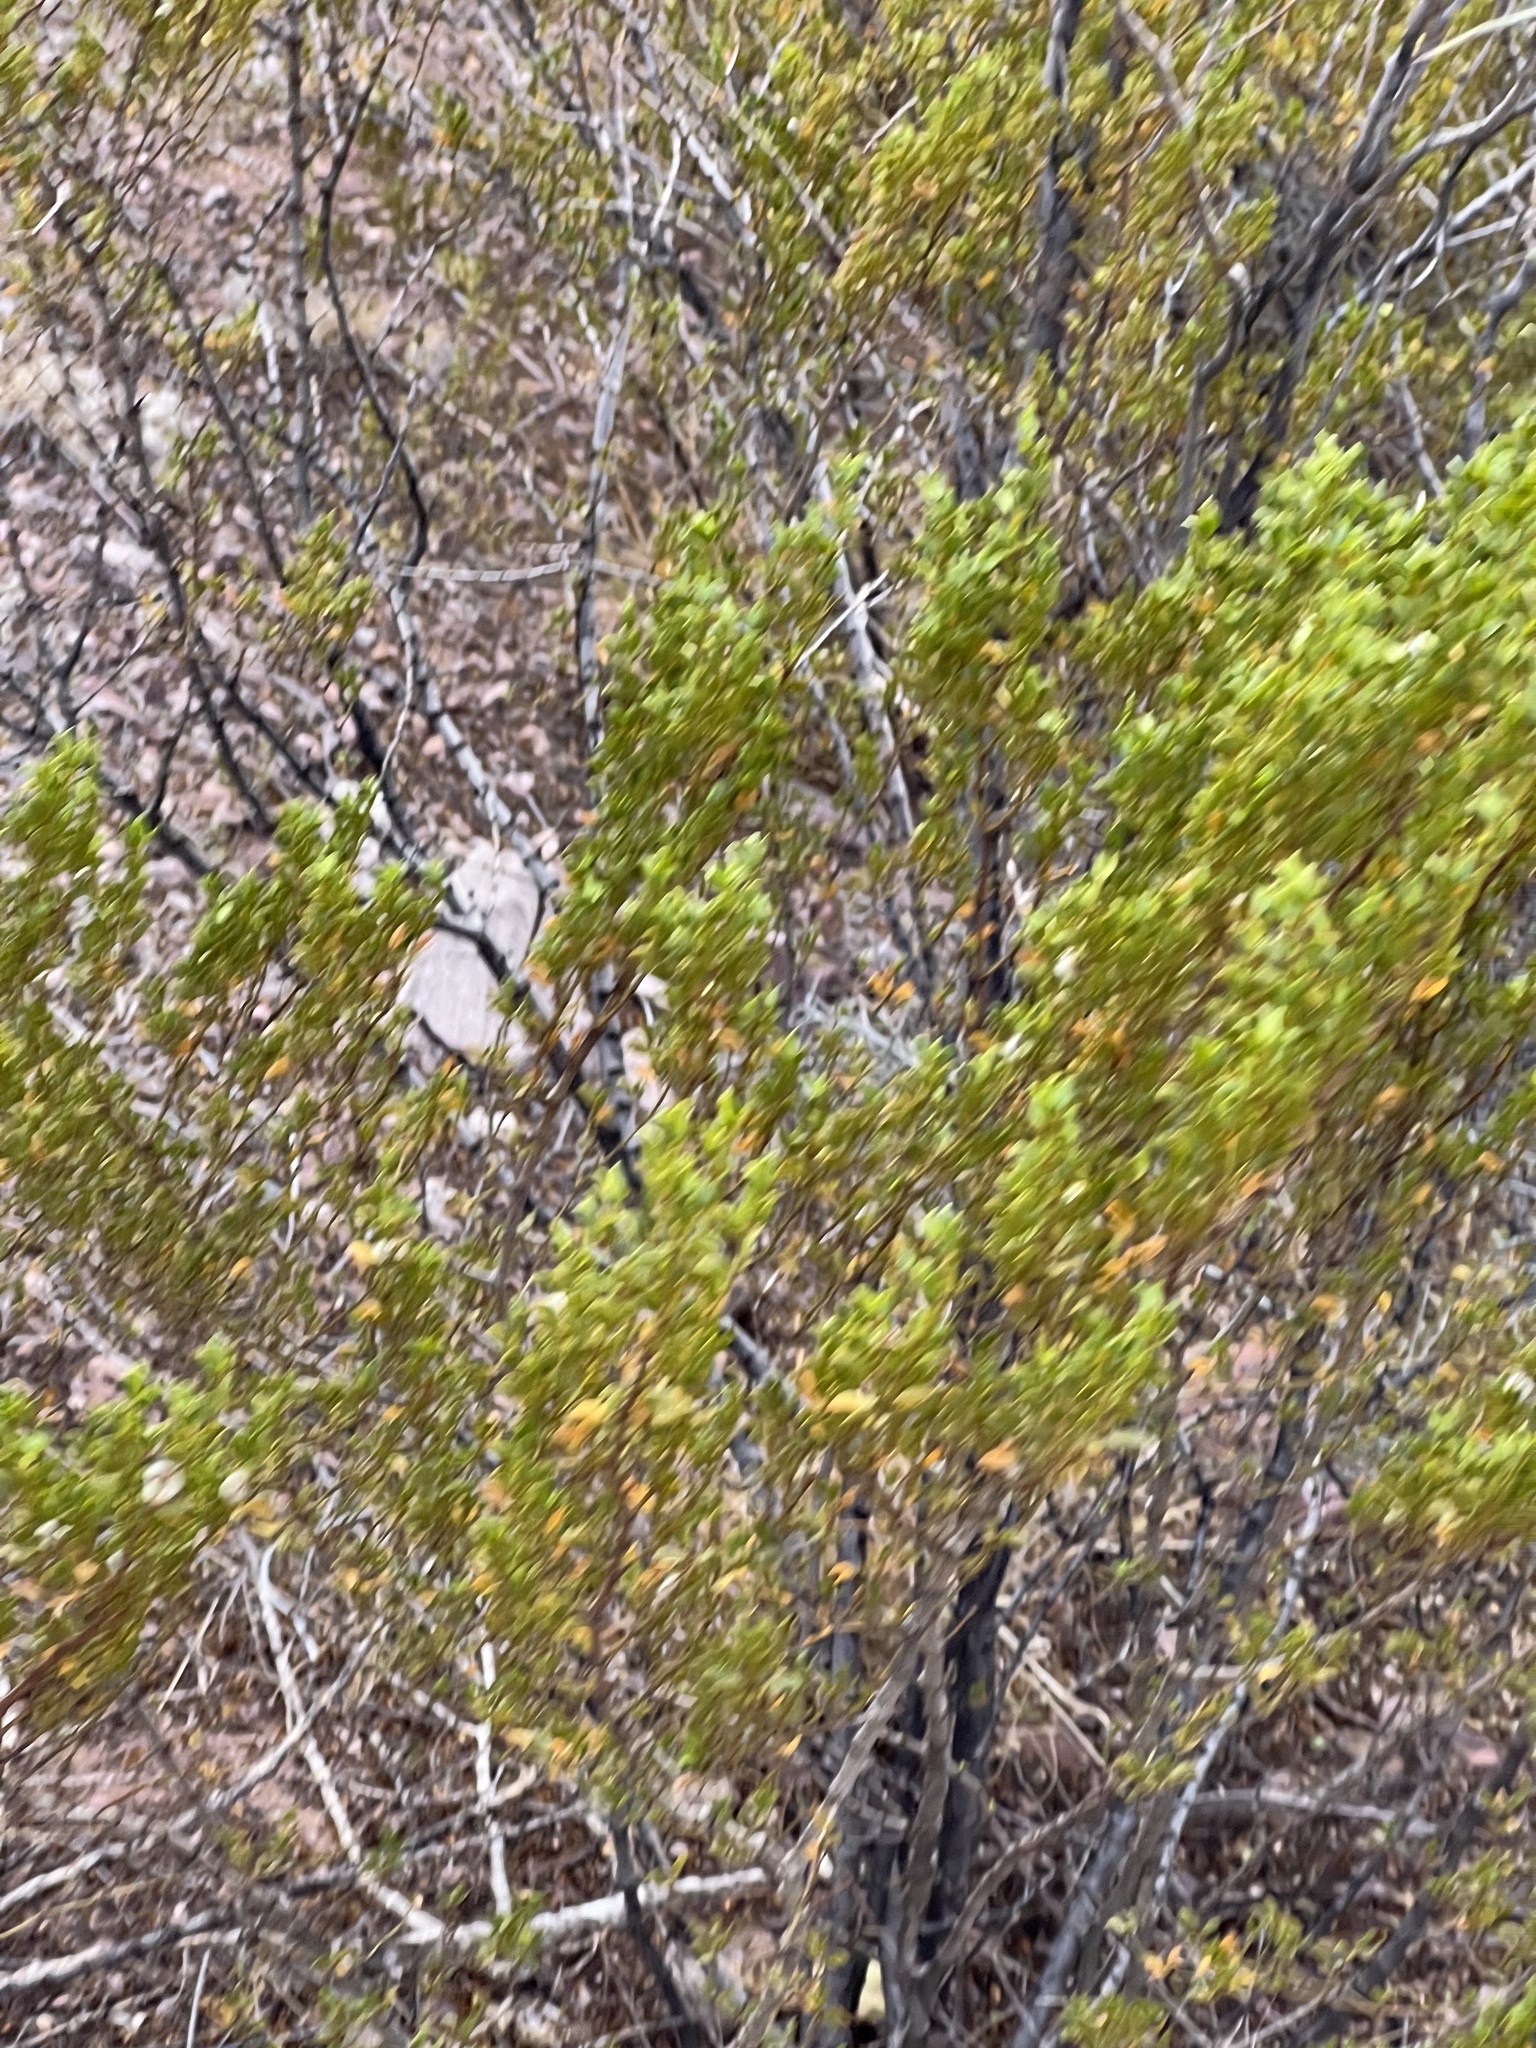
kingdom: Plantae
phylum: Tracheophyta
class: Magnoliopsida
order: Zygophyllales
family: Zygophyllaceae
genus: Larrea
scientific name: Larrea tridentata
